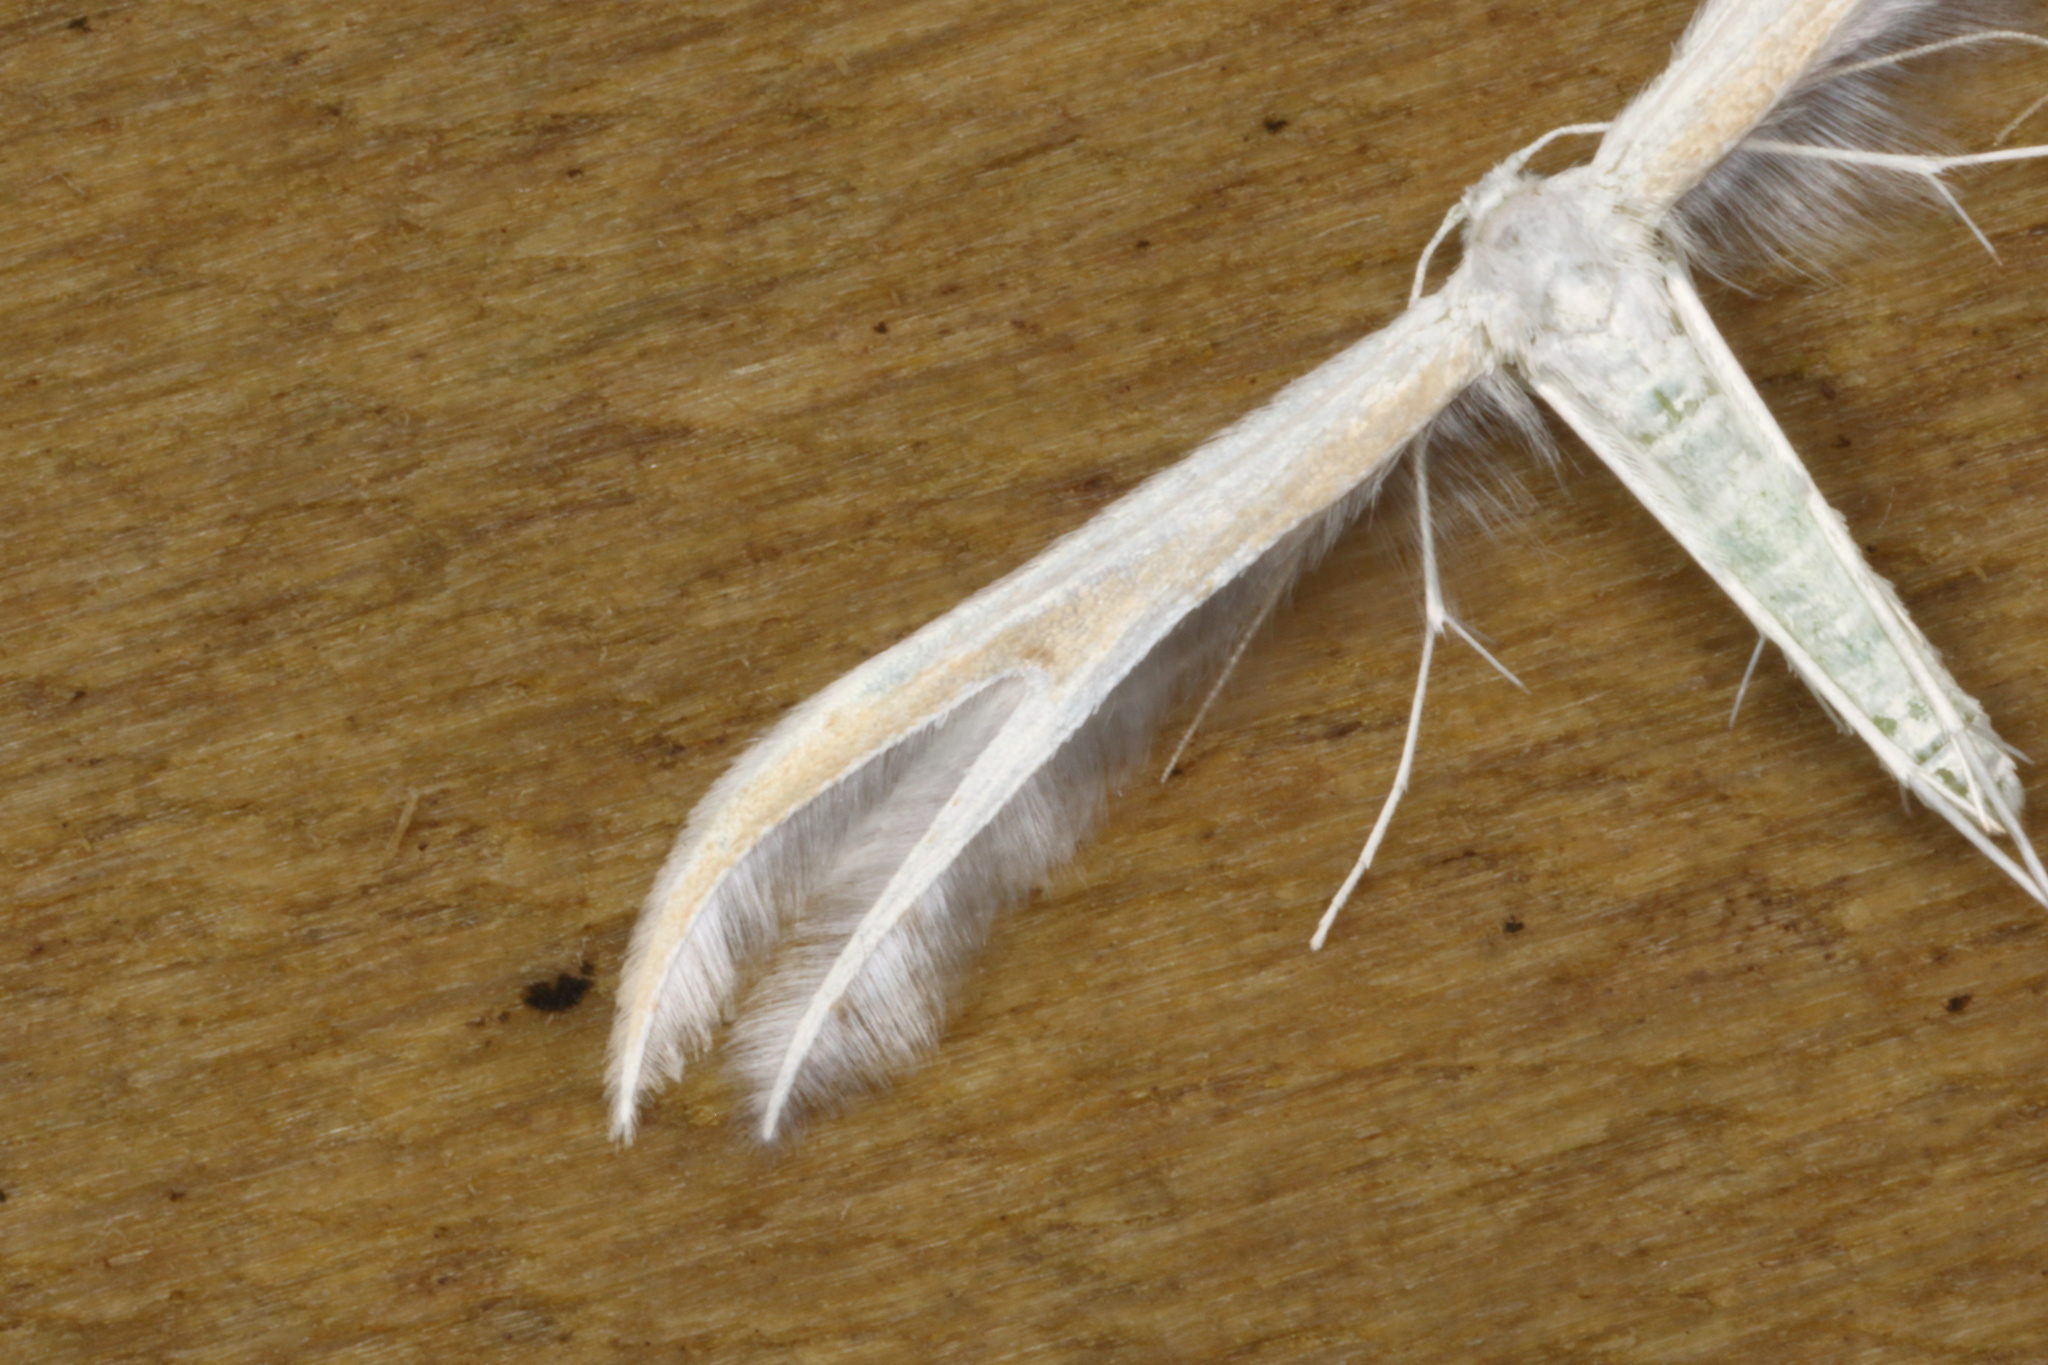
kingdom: Animalia
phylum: Arthropoda
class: Insecta
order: Lepidoptera
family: Pterophoridae
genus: Pterophorus
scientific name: Pterophorus monospilalis
